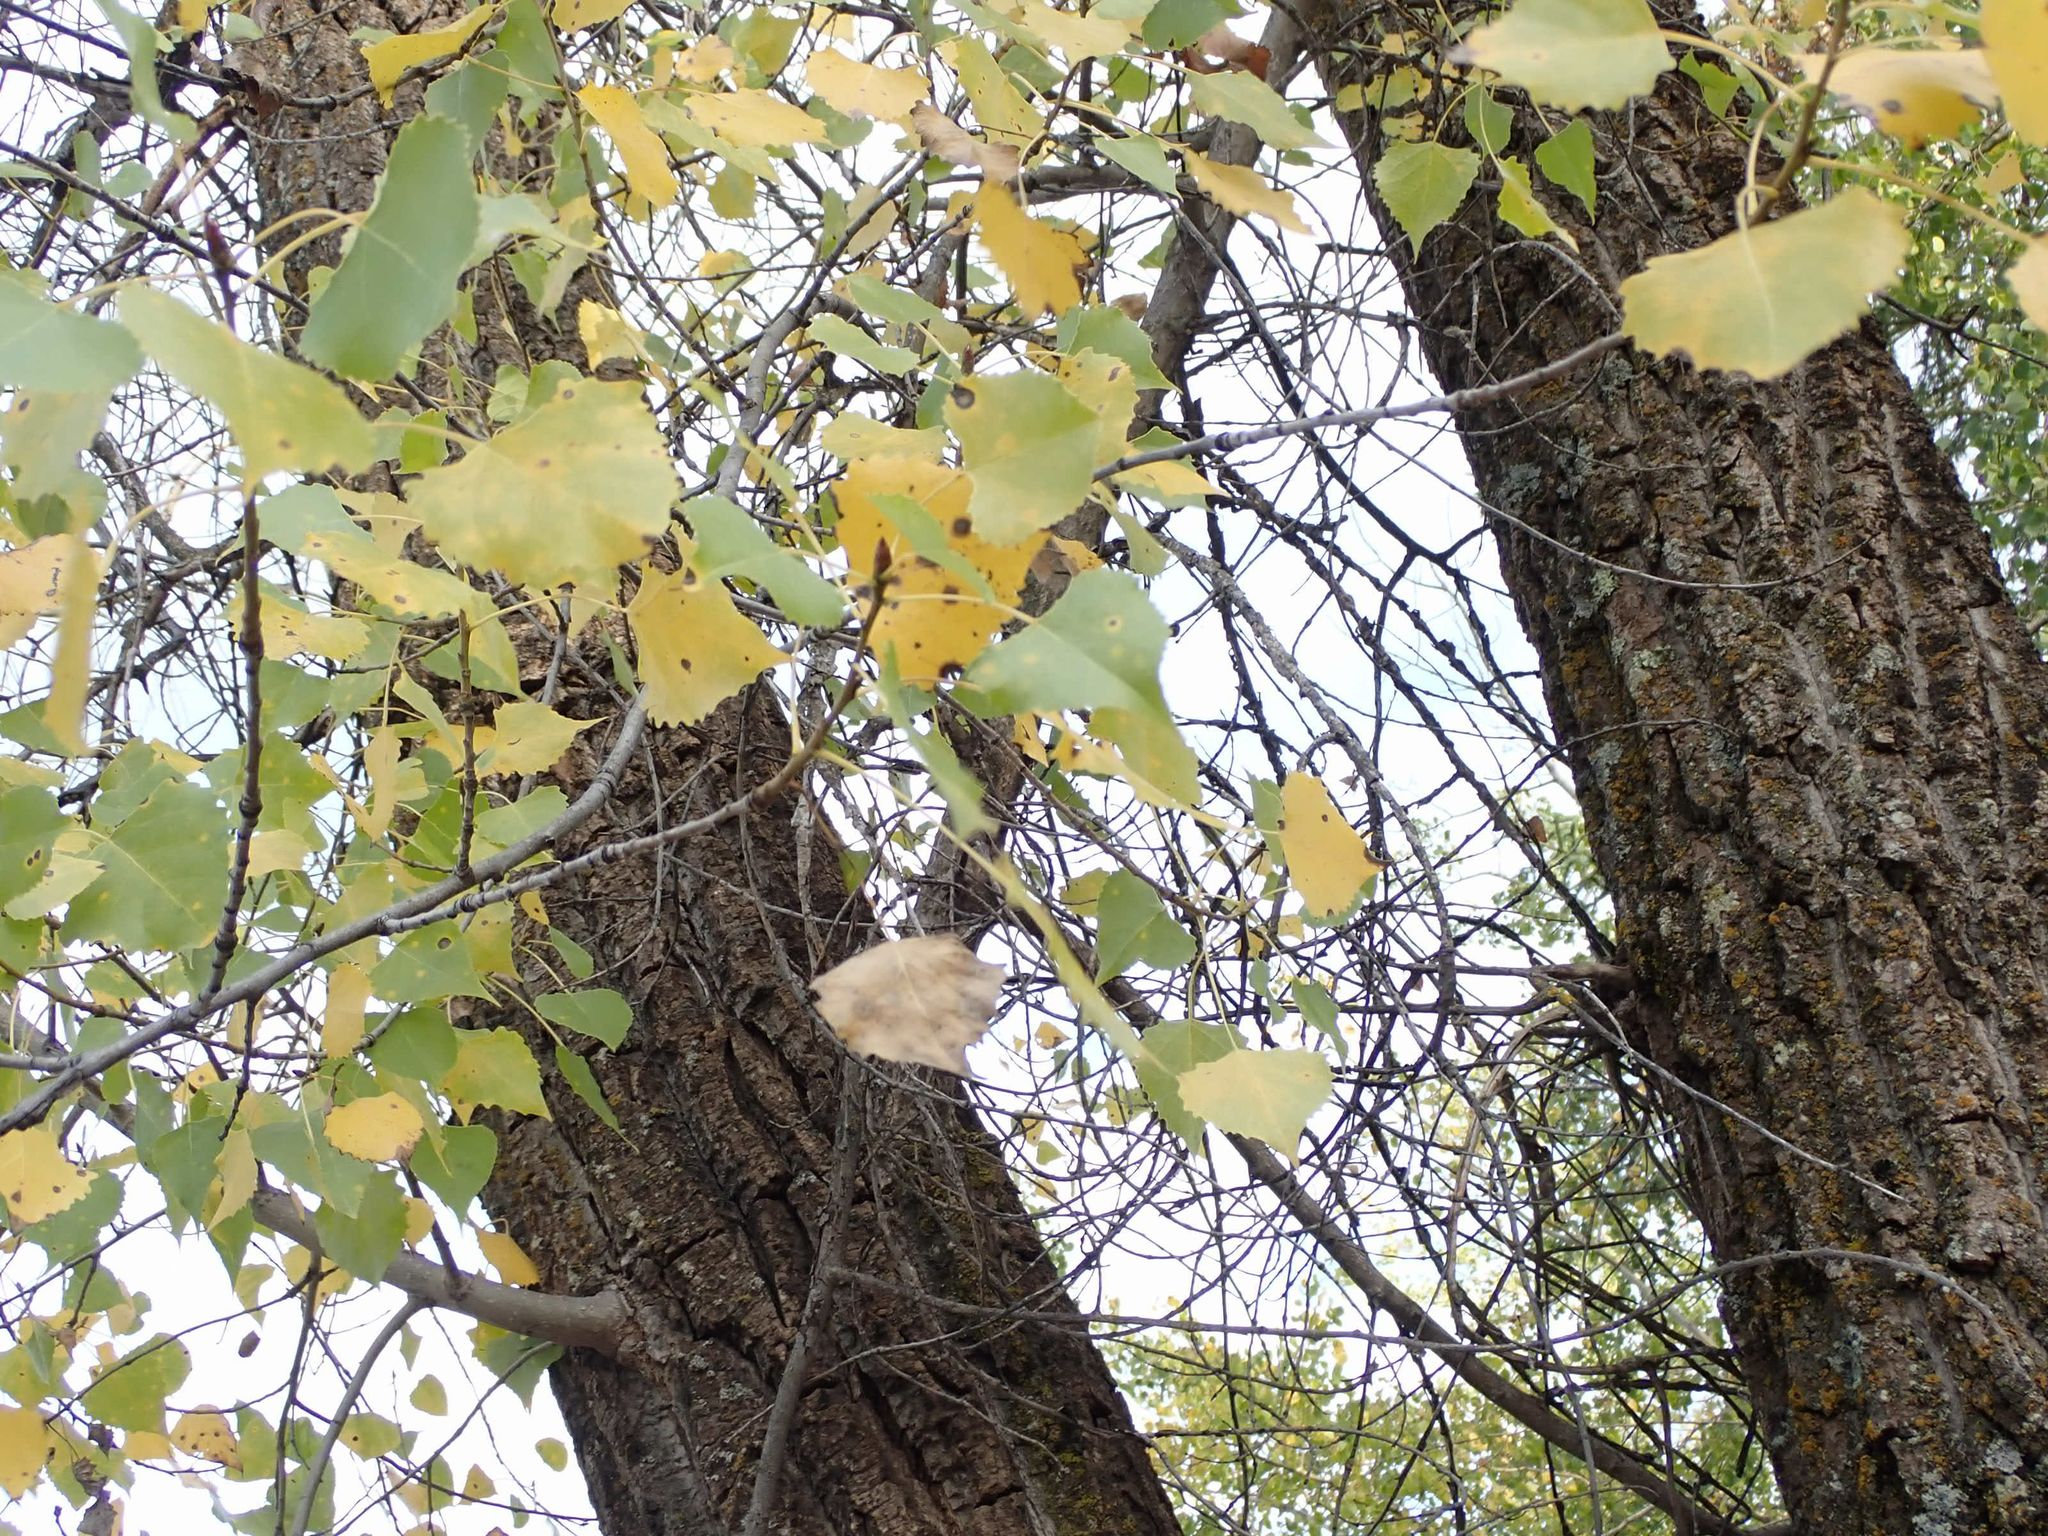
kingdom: Plantae
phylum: Tracheophyta
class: Magnoliopsida
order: Malpighiales
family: Salicaceae
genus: Populus
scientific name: Populus deltoides
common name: Eastern cottonwood
